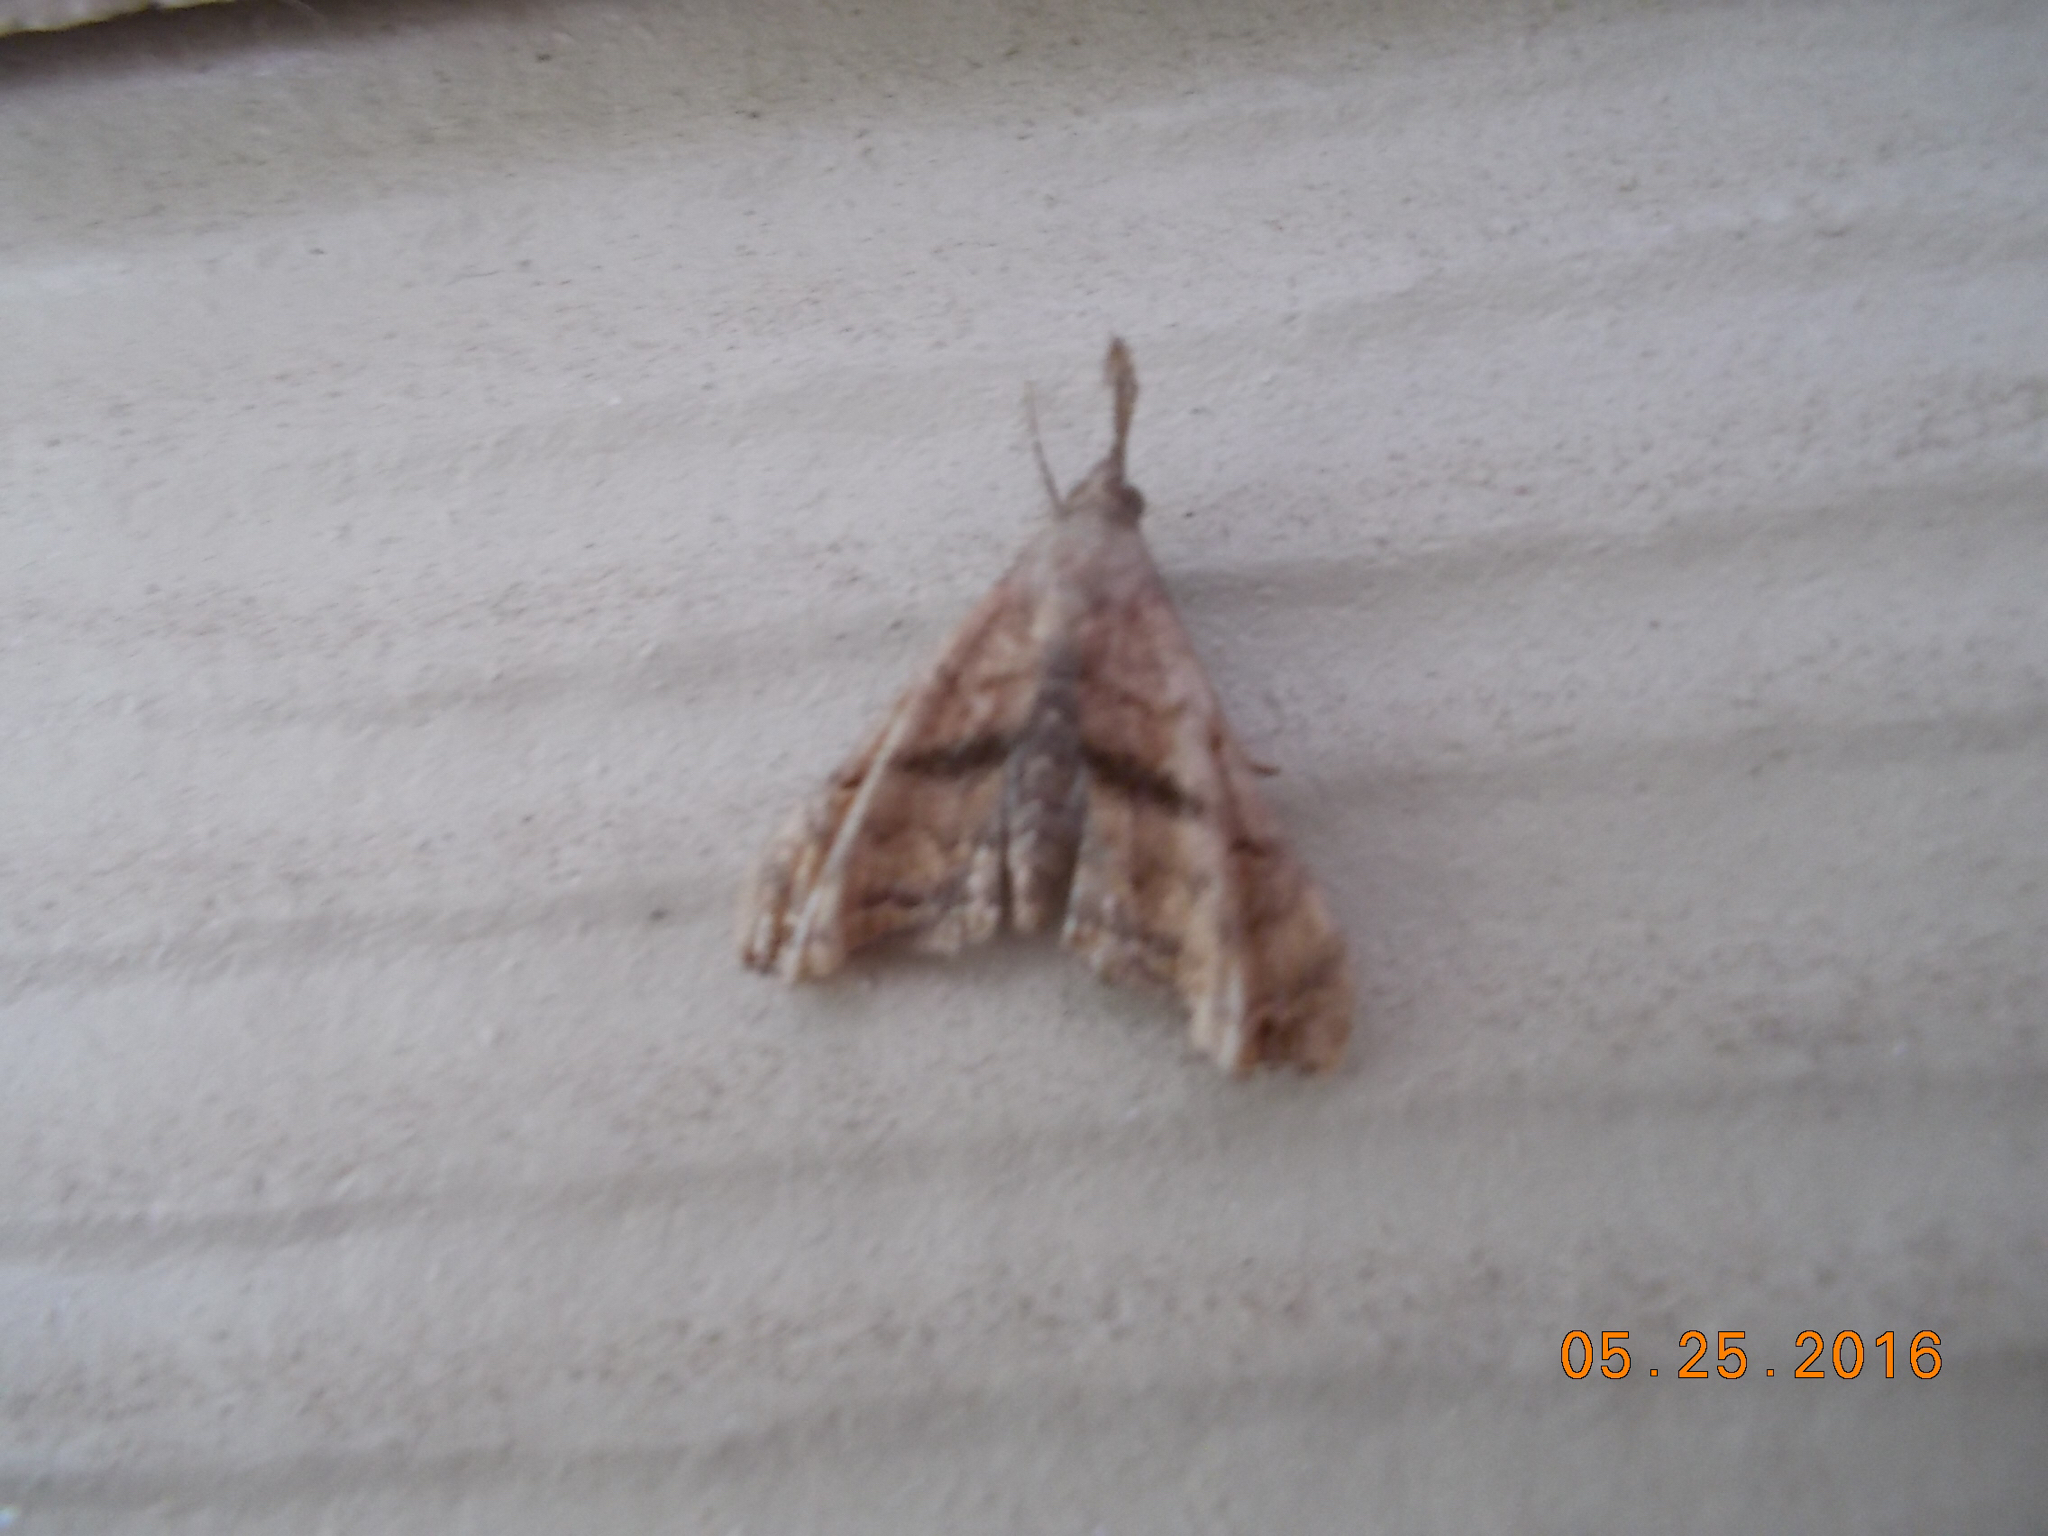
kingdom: Animalia
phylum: Arthropoda
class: Insecta
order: Lepidoptera
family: Erebidae
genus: Palthis
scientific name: Palthis angulalis
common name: Dark-spotted palthis moth
